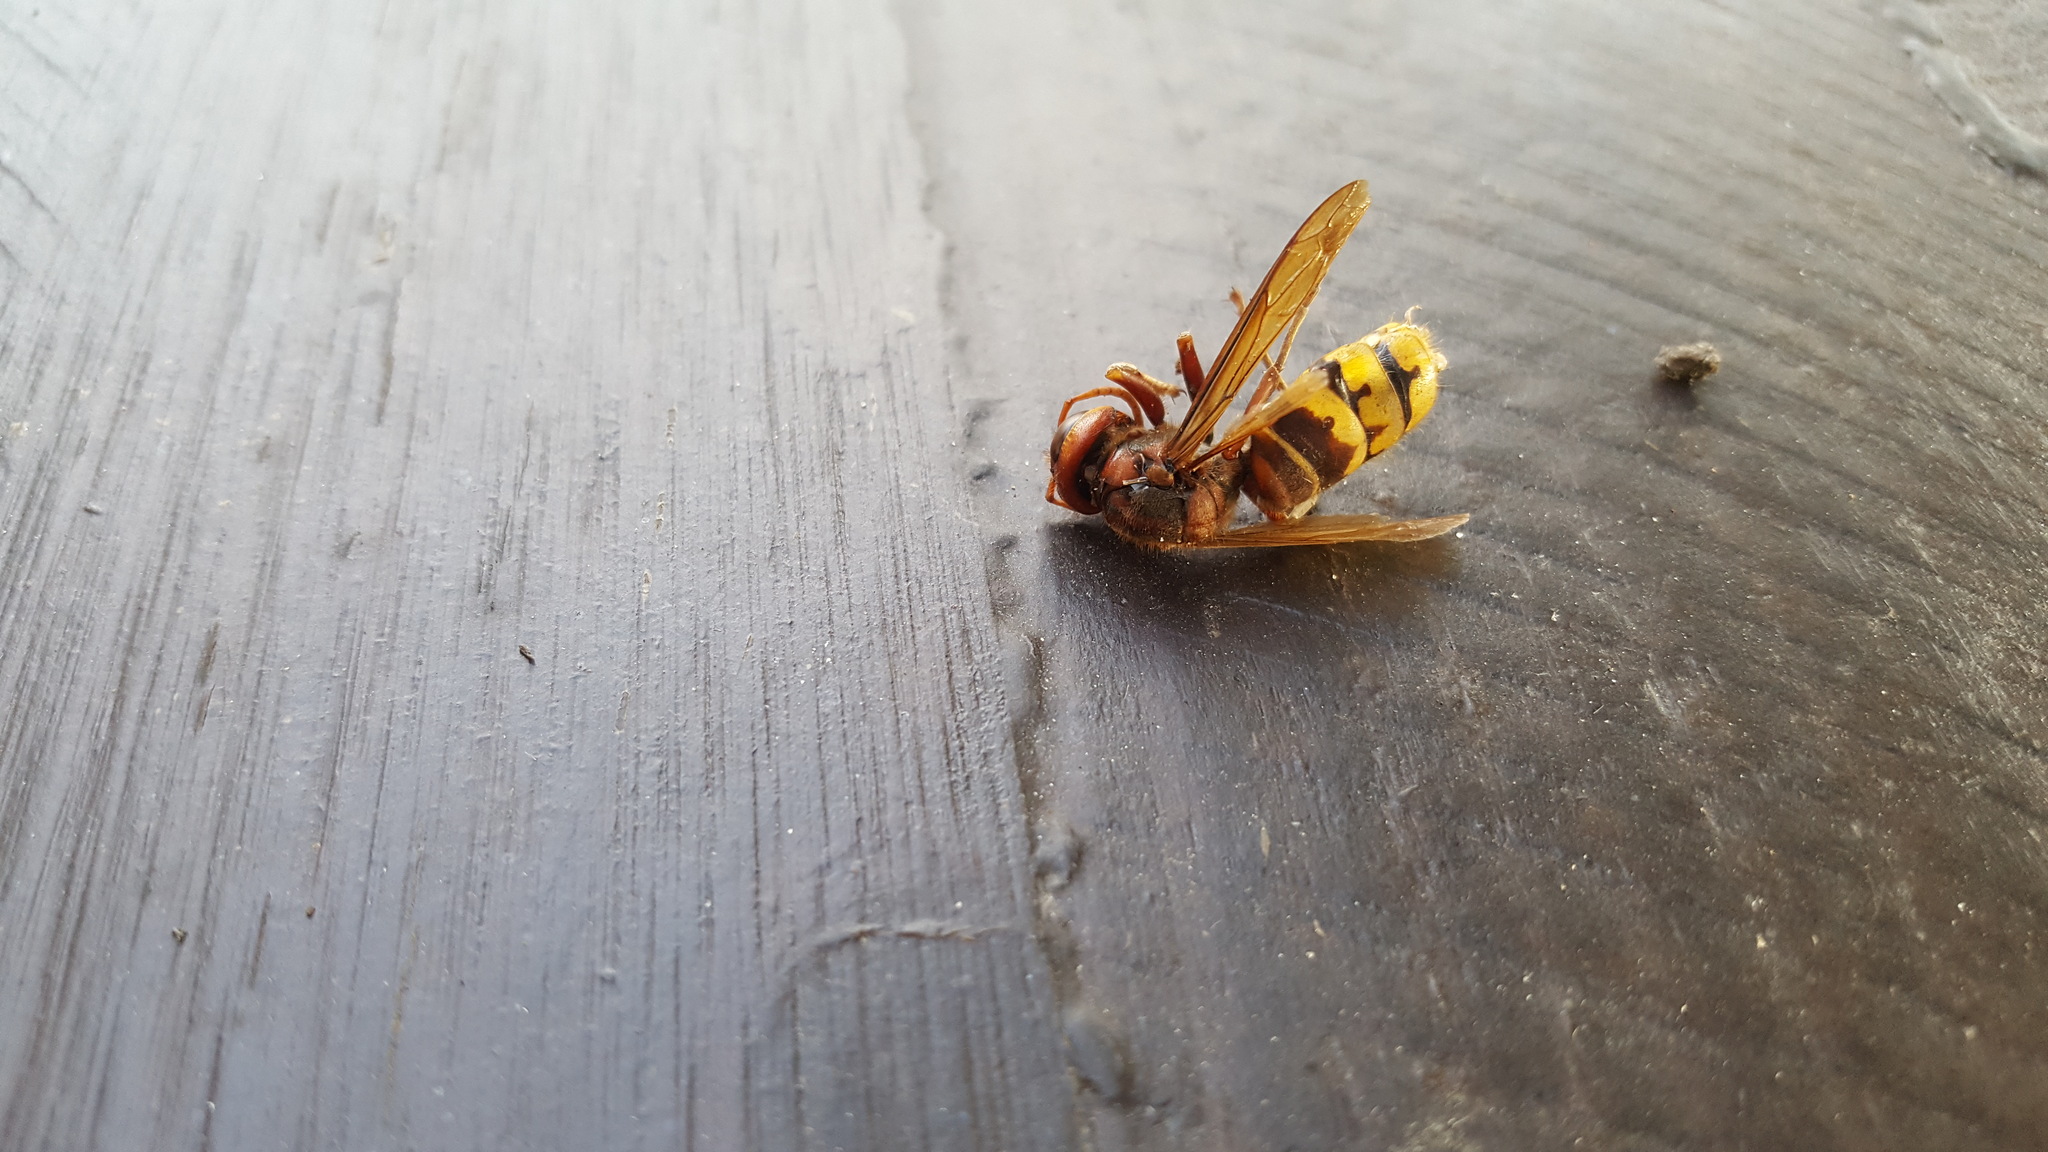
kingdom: Animalia
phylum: Arthropoda
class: Insecta
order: Hymenoptera
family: Vespidae
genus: Vespa
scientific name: Vespa crabro
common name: Hornet
